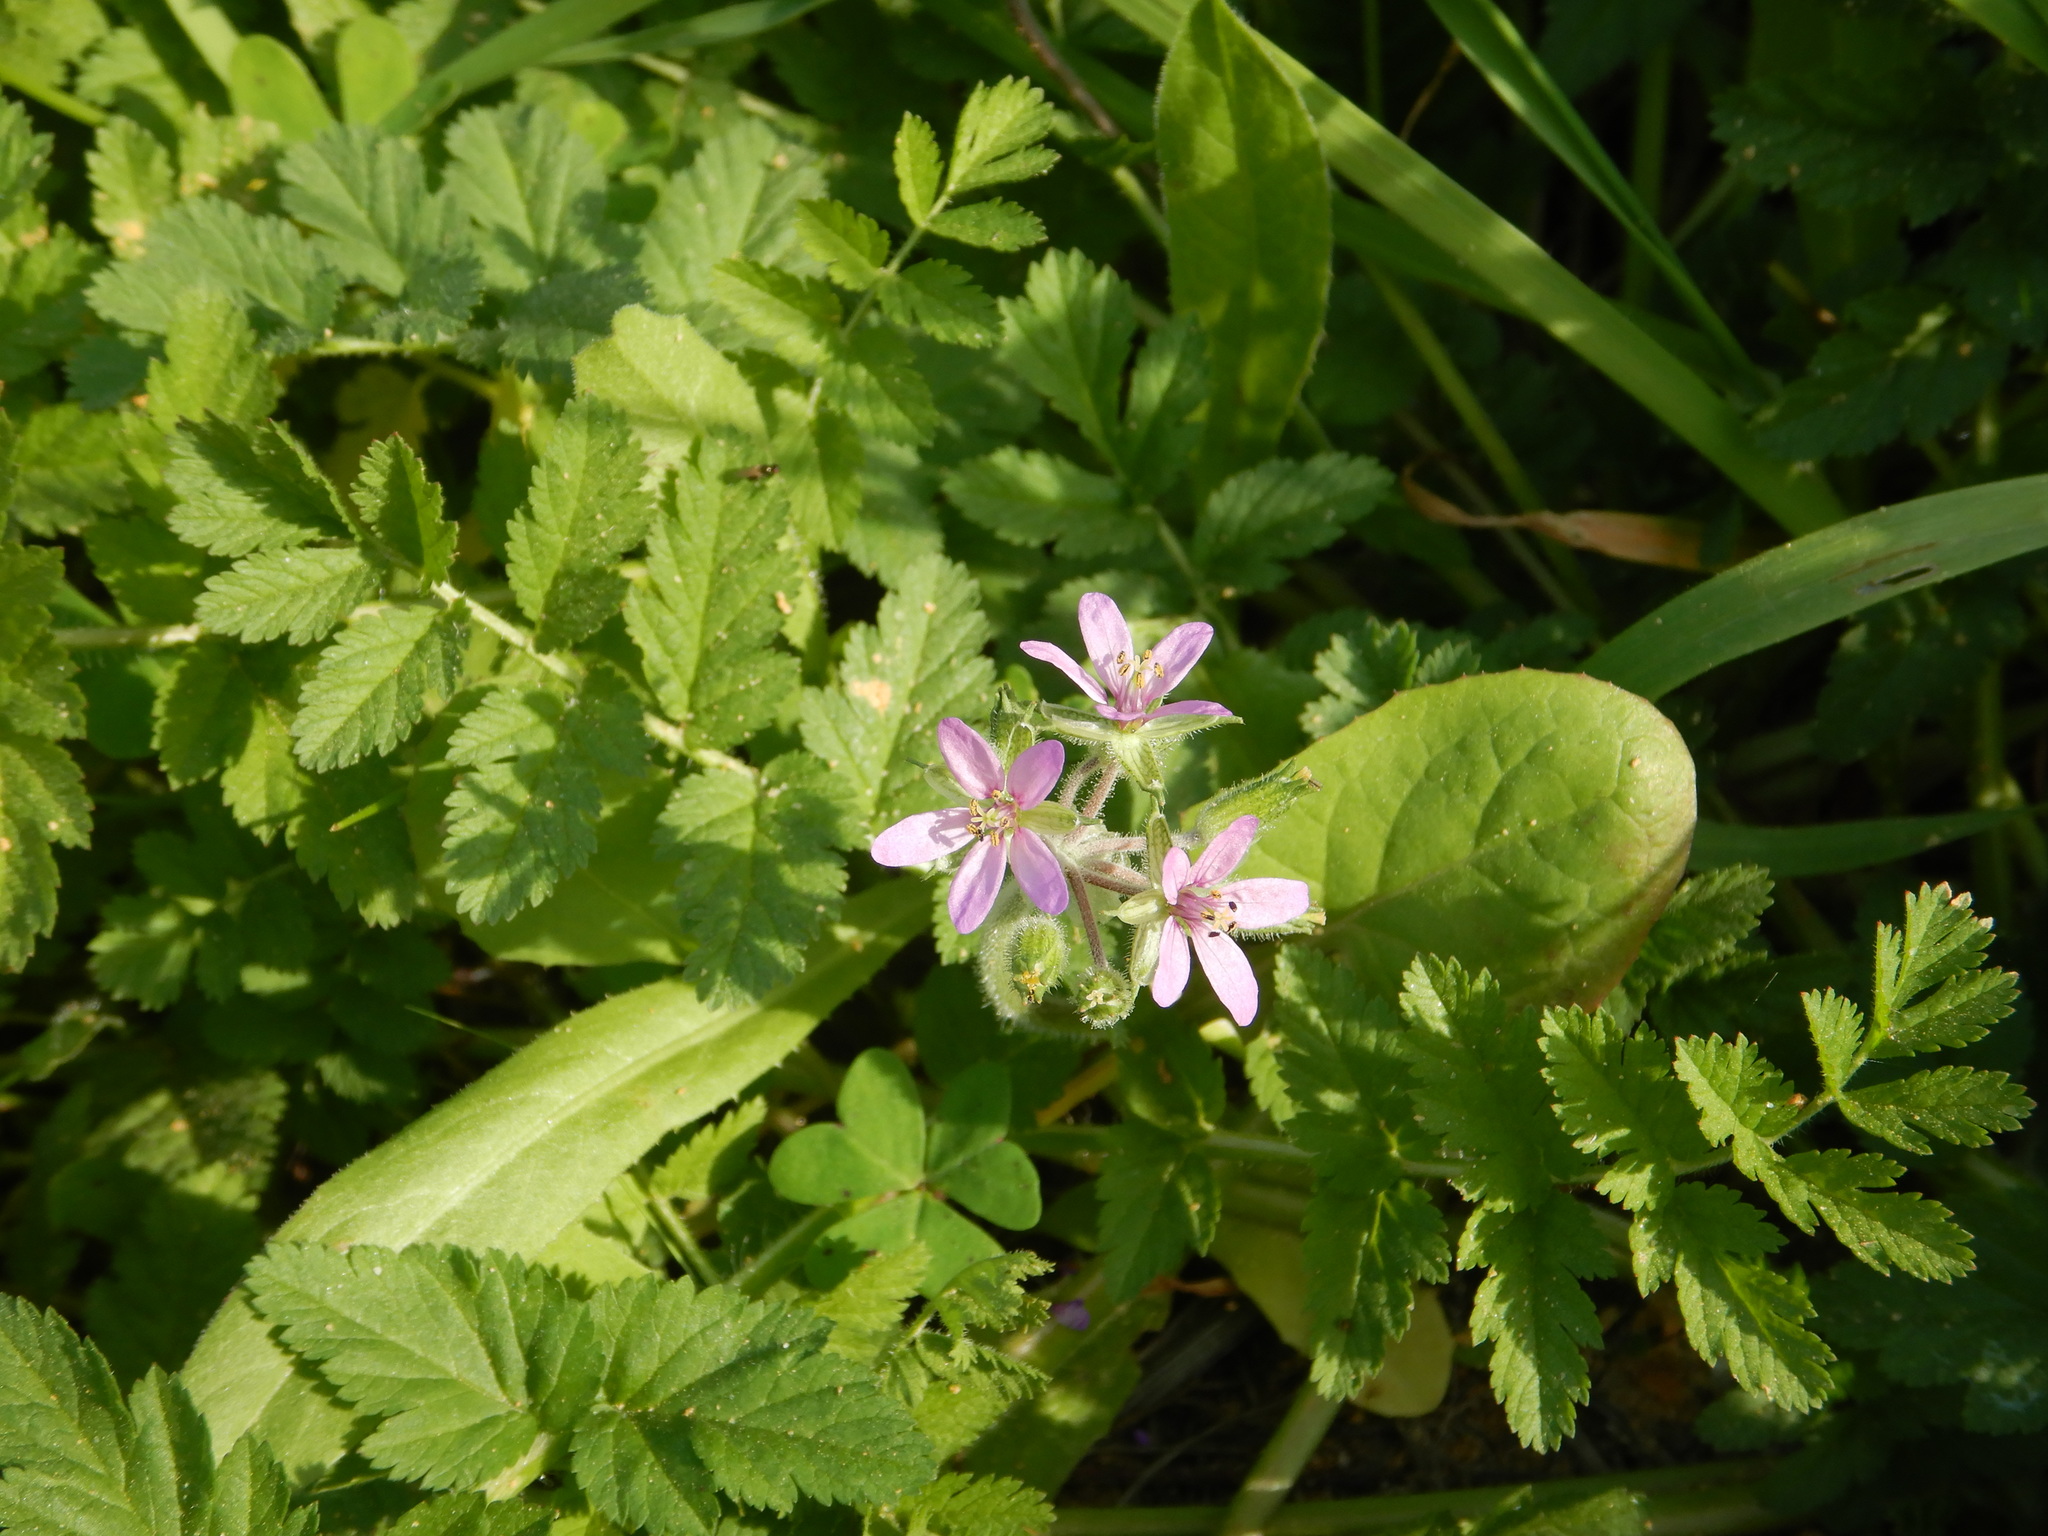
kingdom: Plantae
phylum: Tracheophyta
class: Magnoliopsida
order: Geraniales
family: Geraniaceae
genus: Erodium
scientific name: Erodium moschatum
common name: Musk stork's-bill
